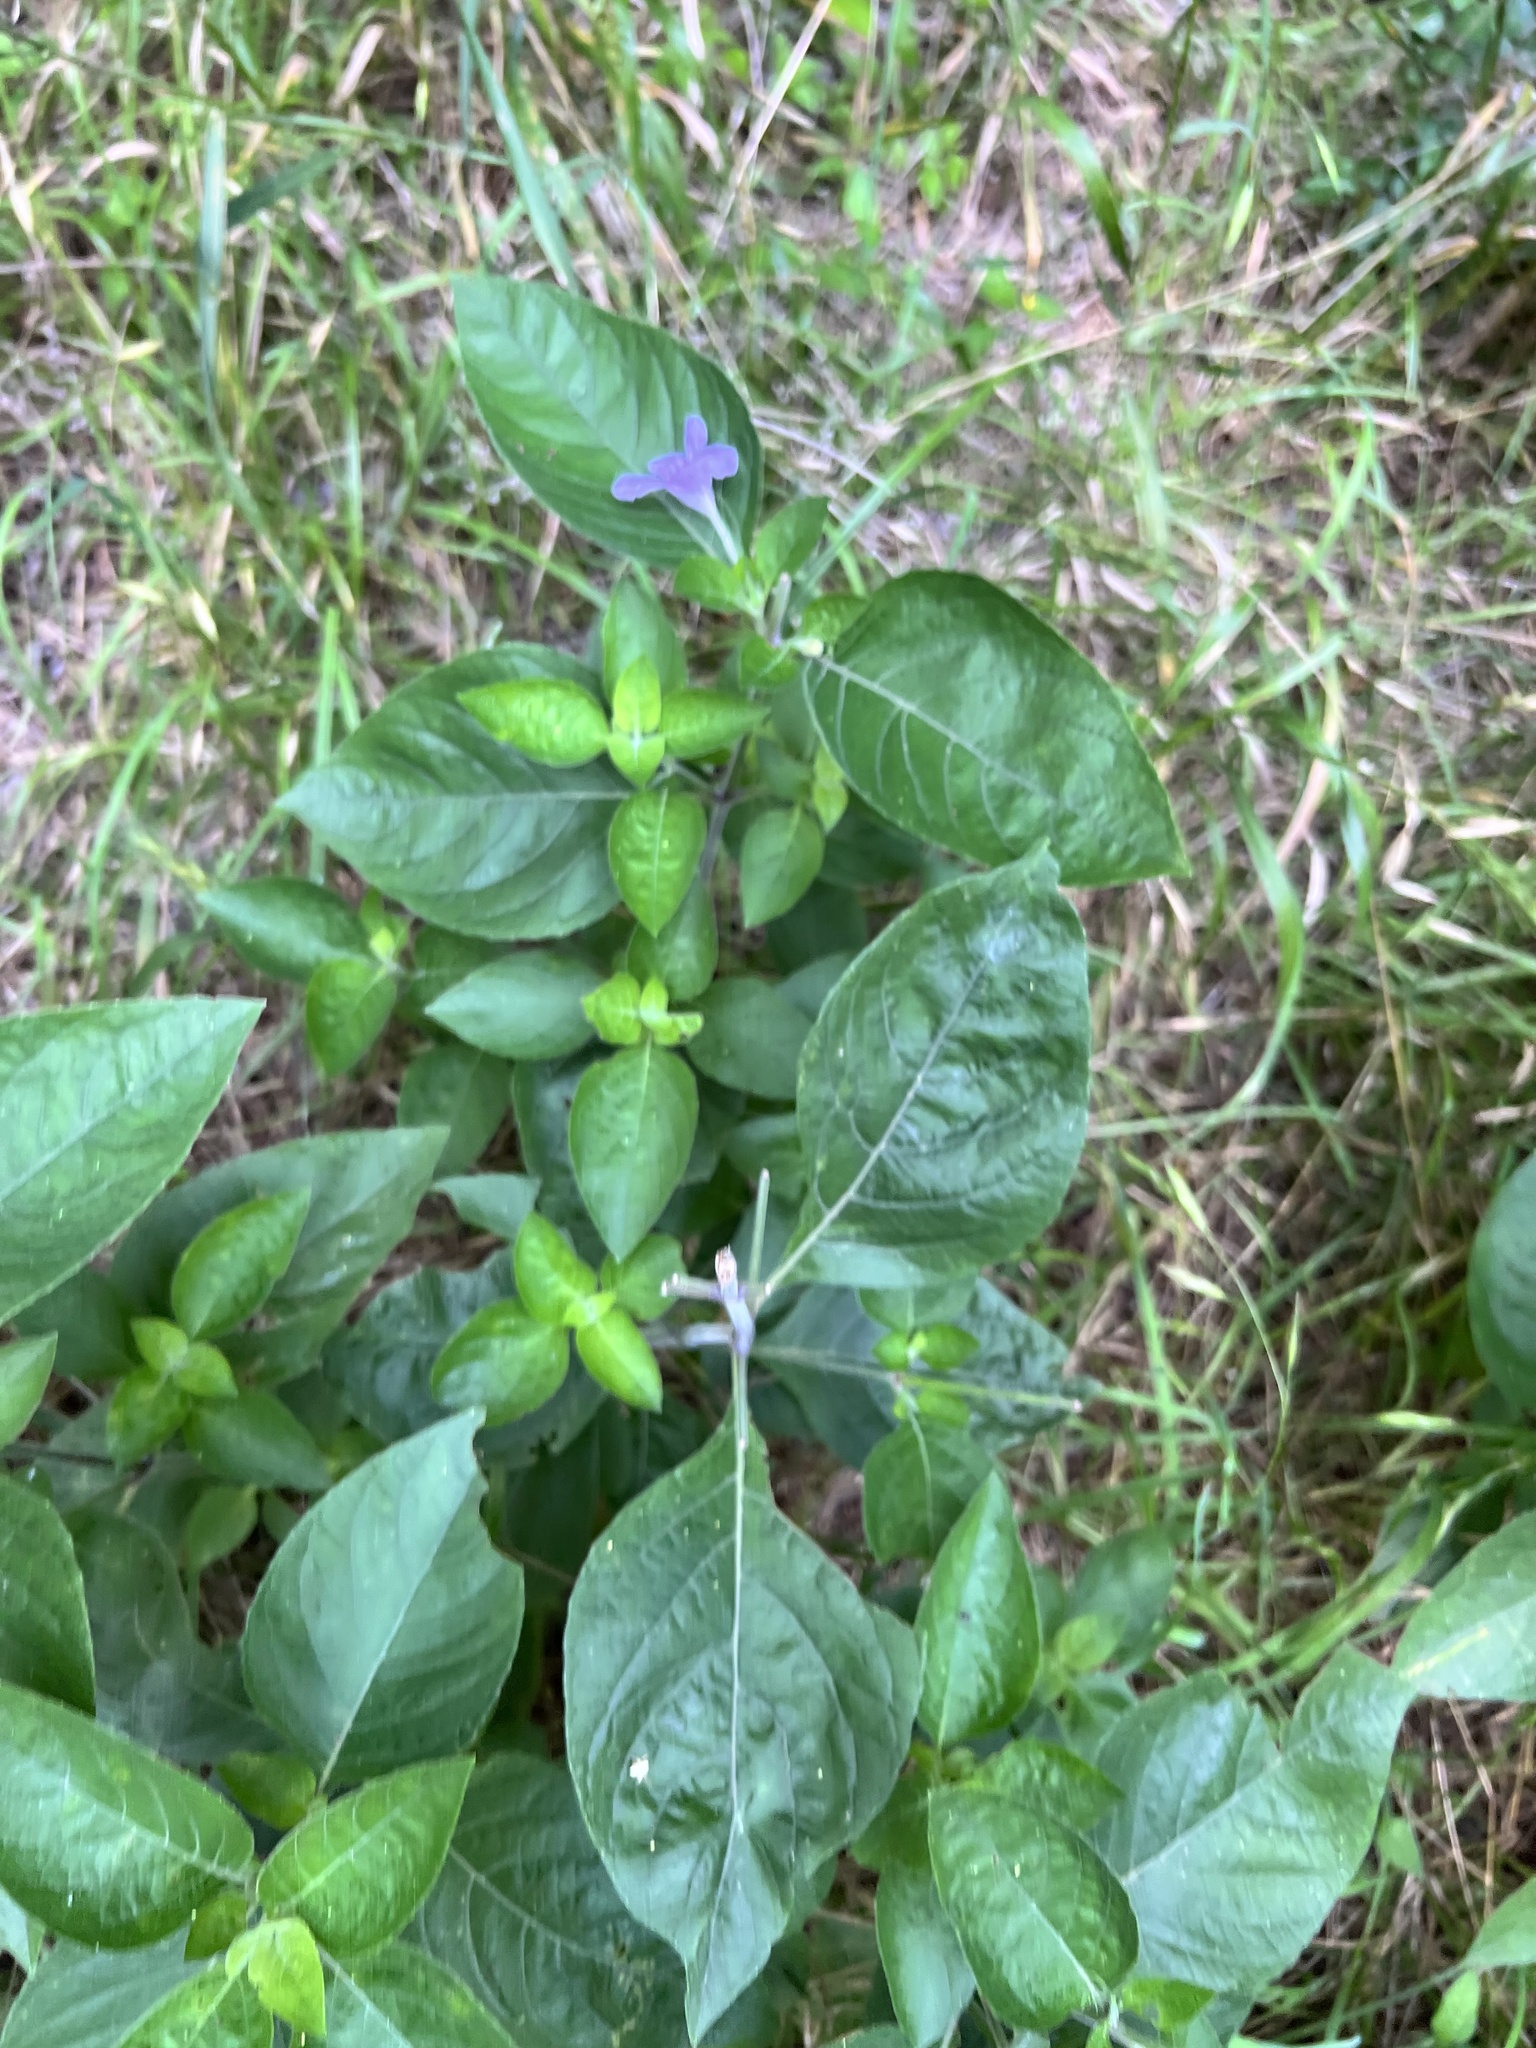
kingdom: Plantae
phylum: Tracheophyta
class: Magnoliopsida
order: Lamiales
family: Acanthaceae
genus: Ruellia
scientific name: Ruellia drummondiana
